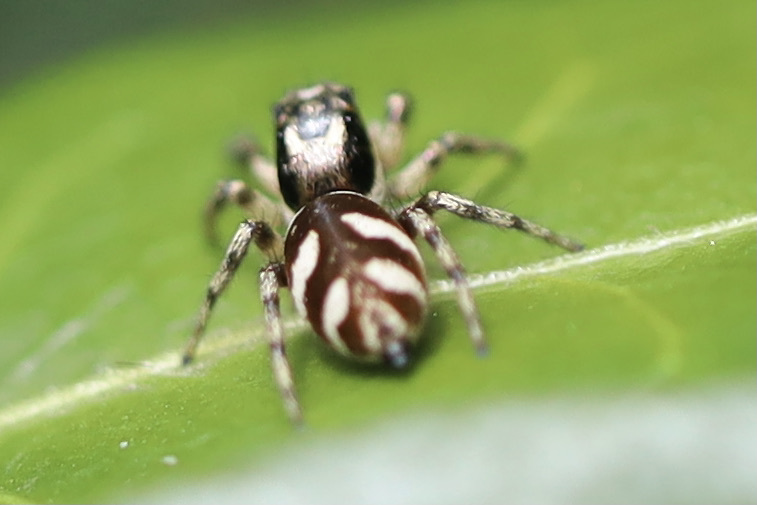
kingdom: Animalia
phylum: Arthropoda
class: Arachnida
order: Araneae
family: Salticidae
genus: Salticus
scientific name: Salticus scenicus
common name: Zebra jumper
